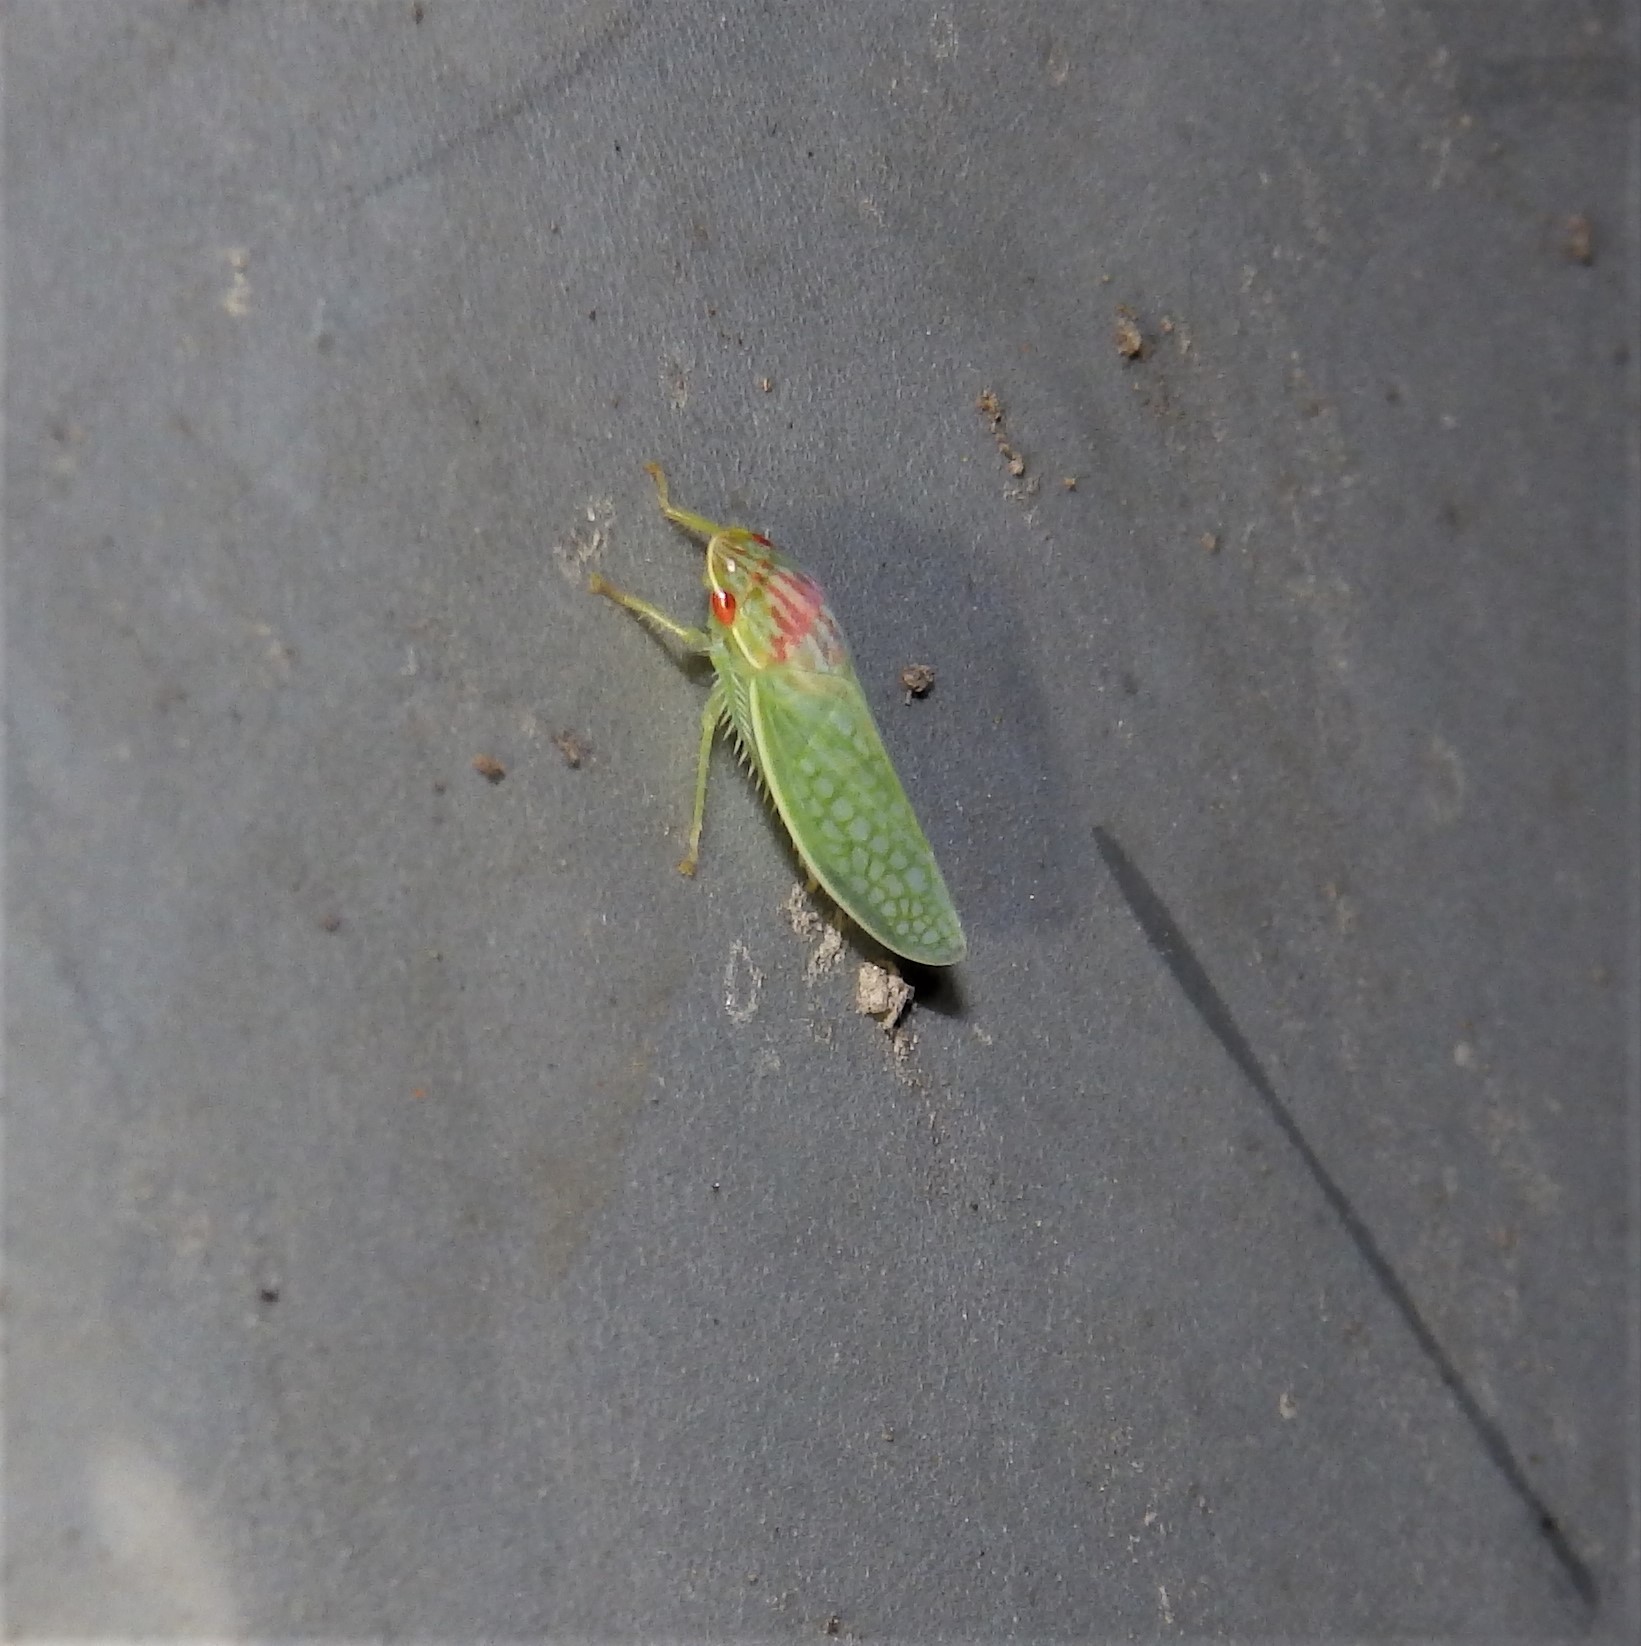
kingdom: Animalia
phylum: Arthropoda
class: Insecta
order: Hemiptera
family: Cicadellidae
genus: Gyponana
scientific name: Gyponana octolineata
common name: Eight-lined leafhopper
